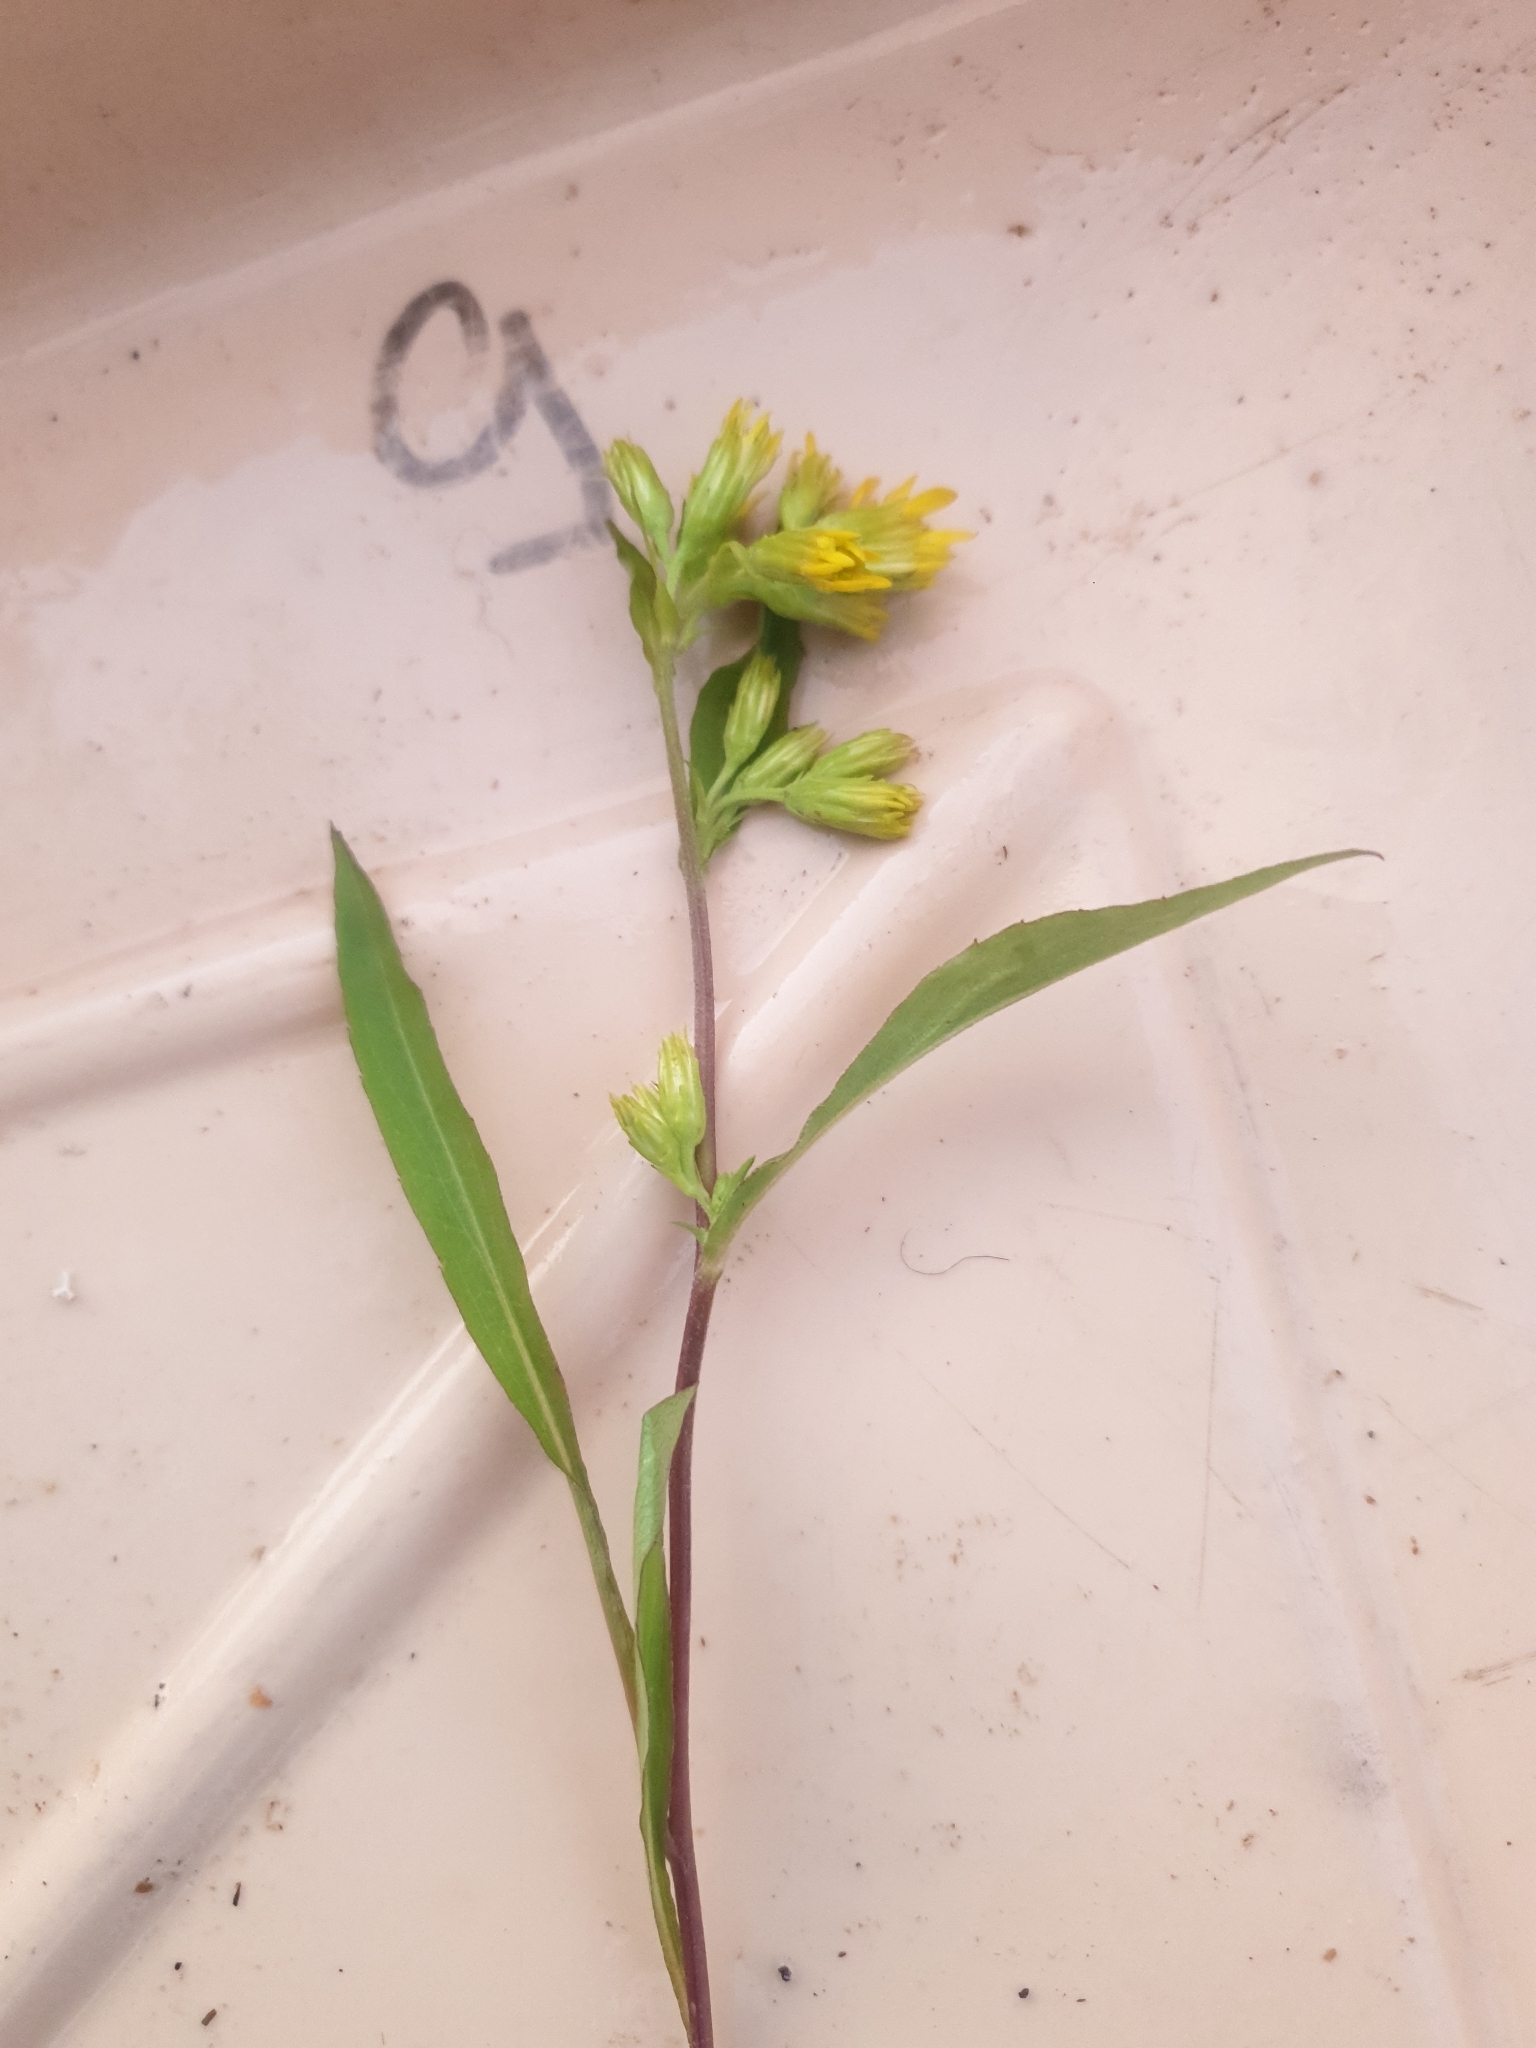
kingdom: Plantae
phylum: Tracheophyta
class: Magnoliopsida
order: Asterales
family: Asteraceae
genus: Solidago
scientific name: Solidago virgaurea
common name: Goldenrod
